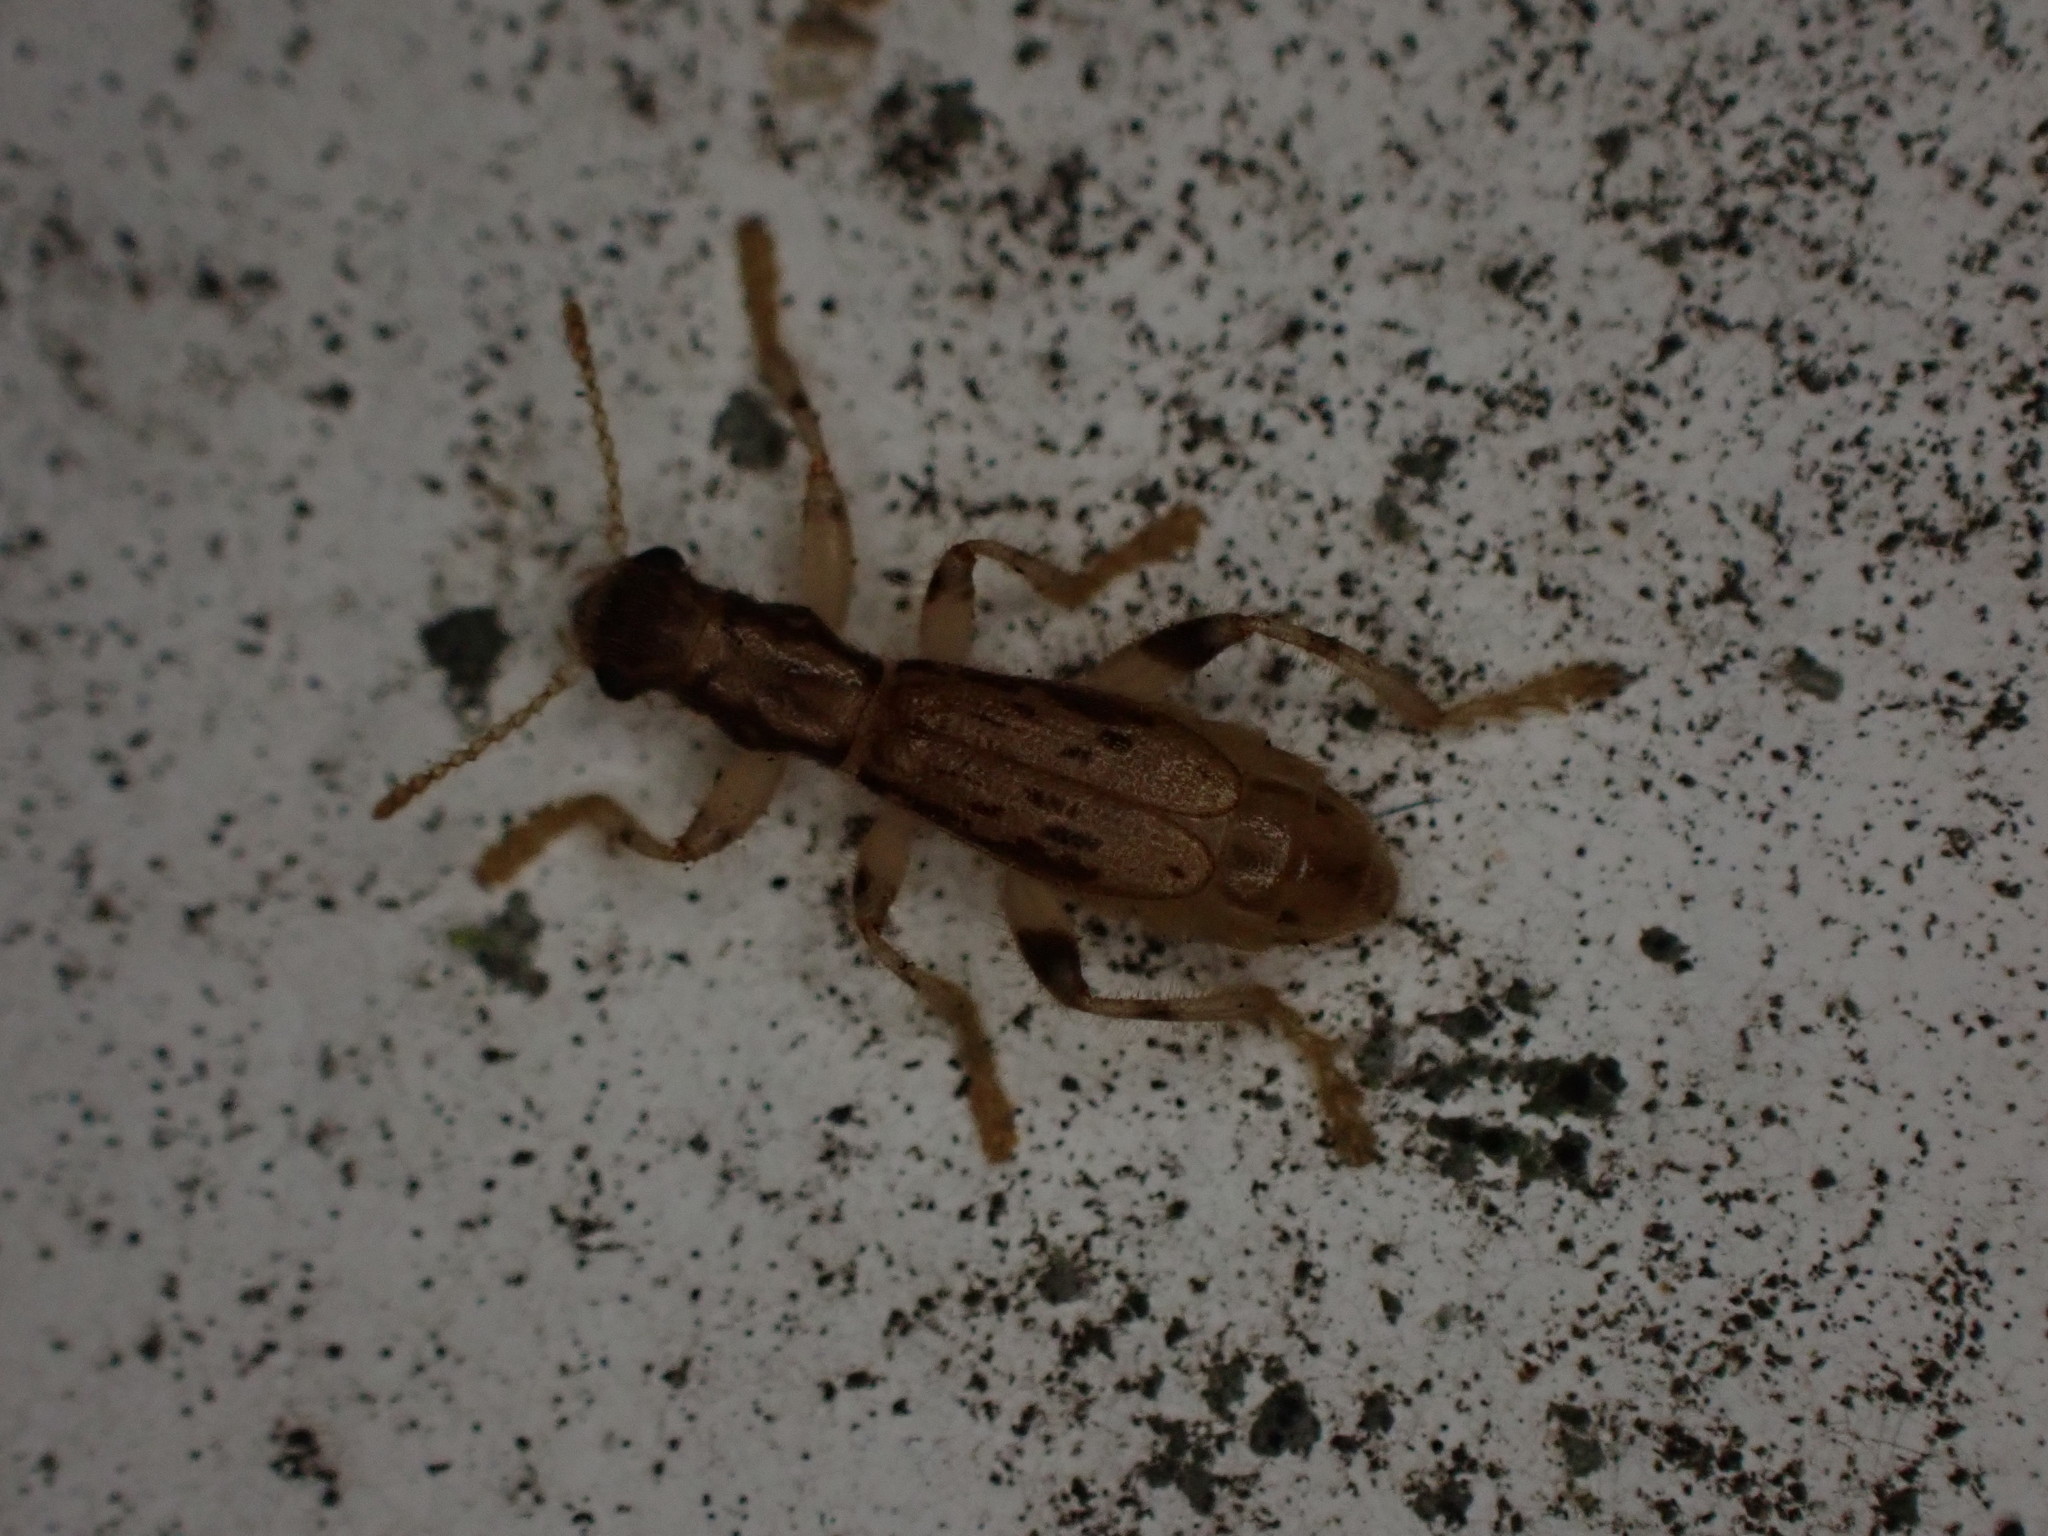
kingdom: Animalia
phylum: Arthropoda
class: Insecta
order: Coleoptera
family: Cleridae
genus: Lemidia
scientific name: Lemidia
